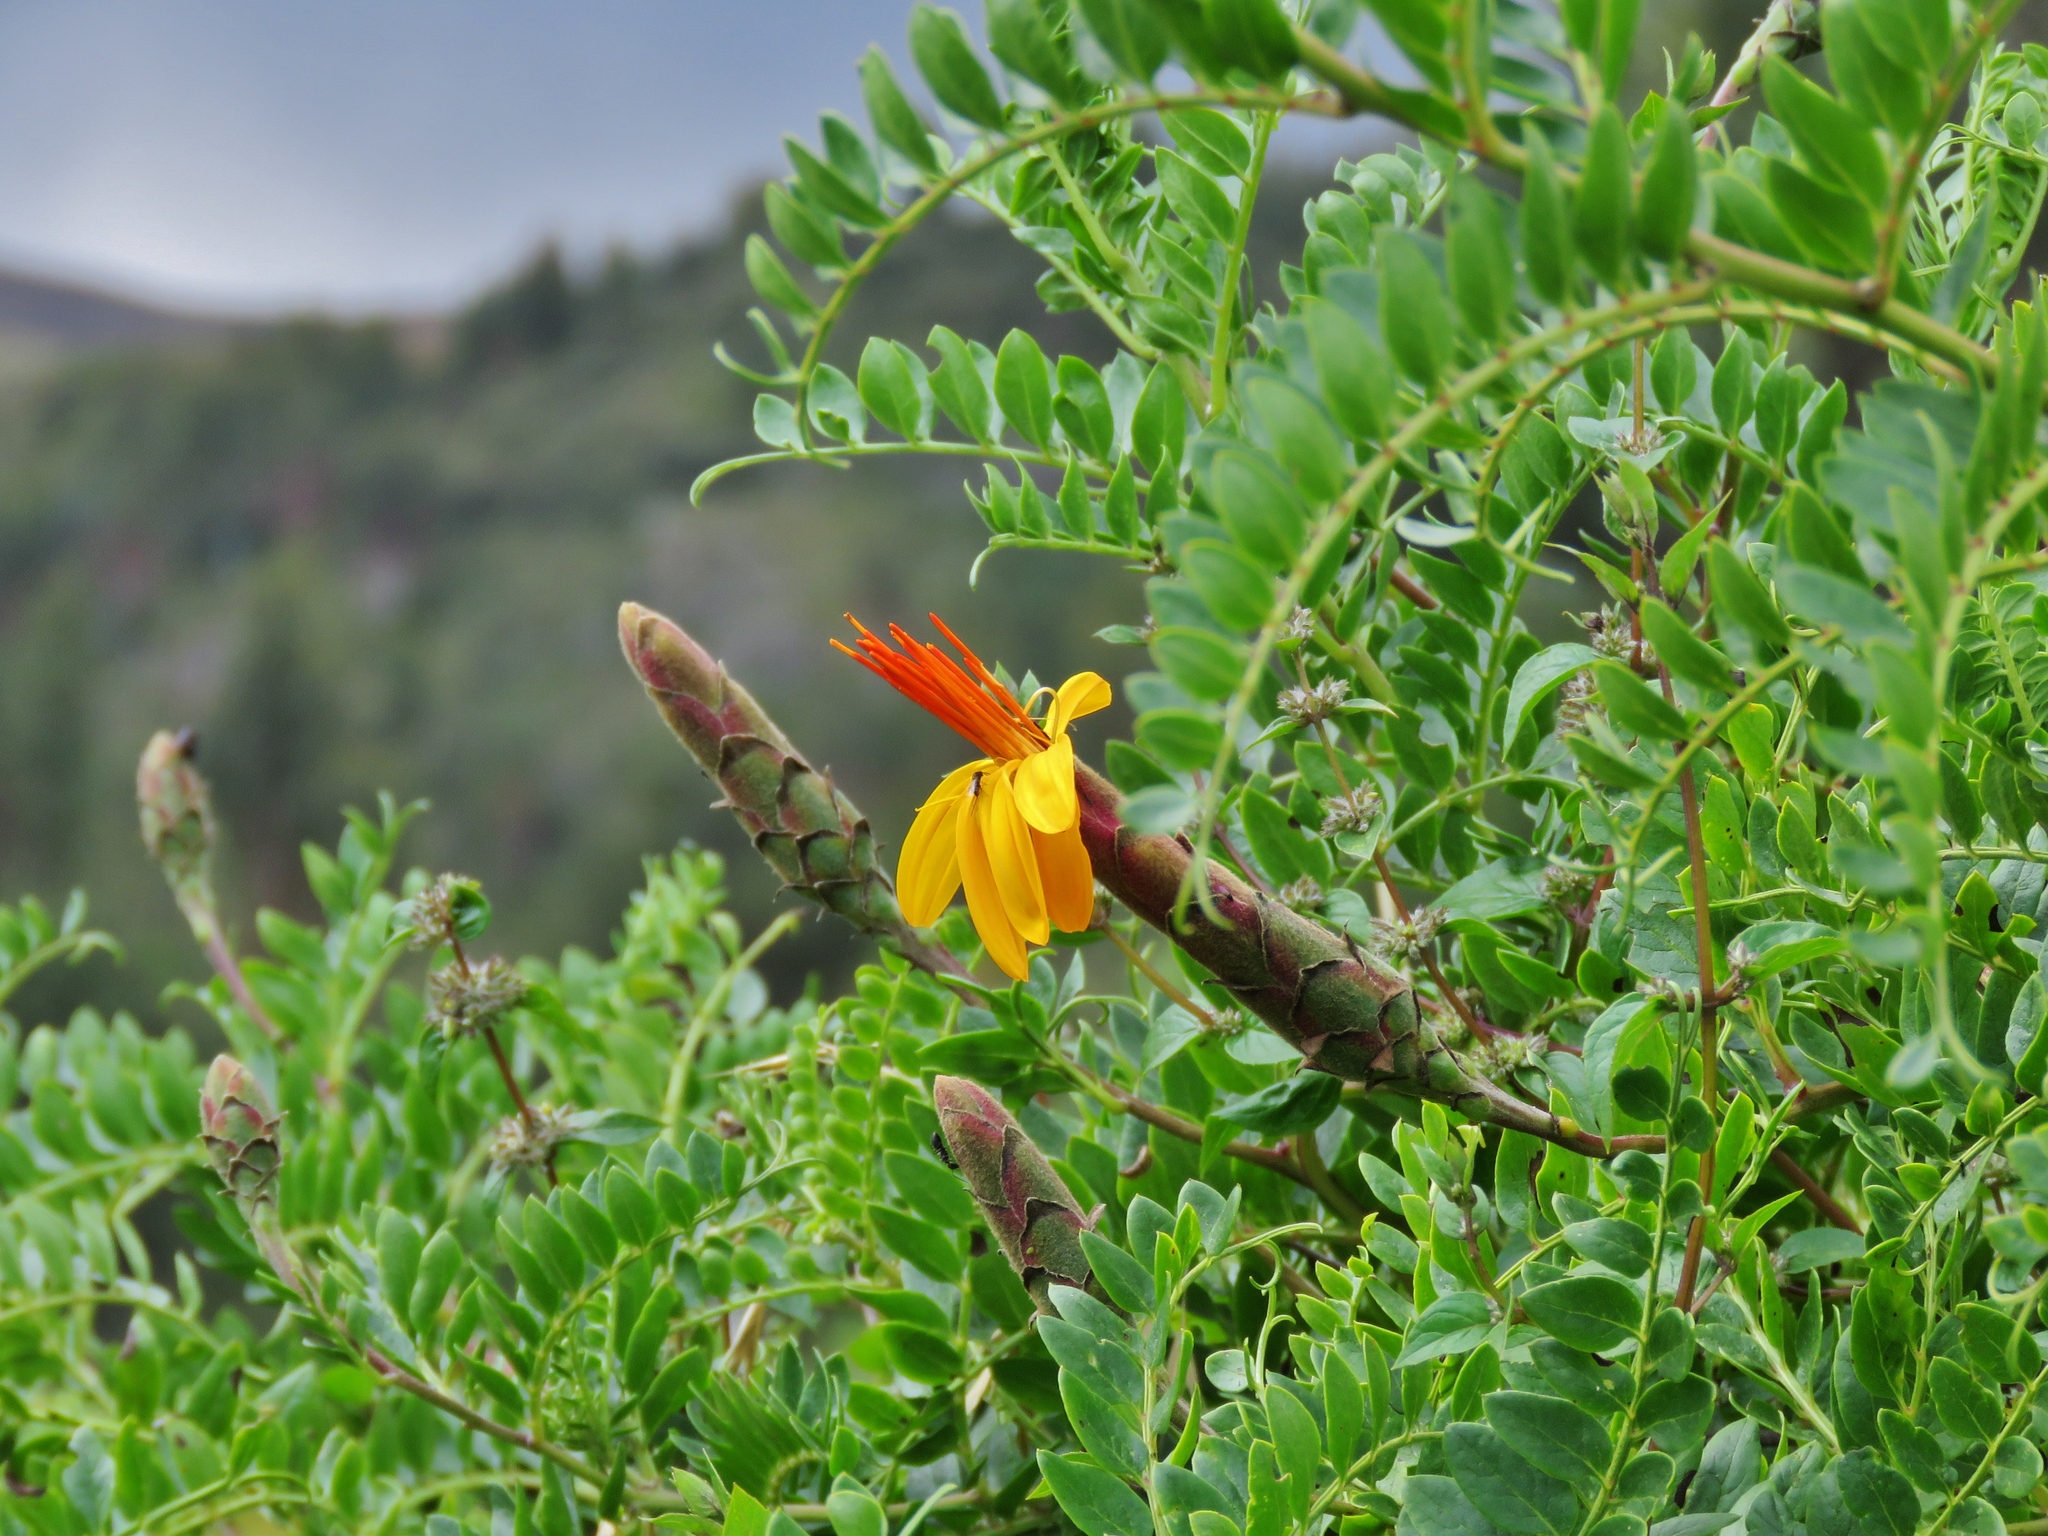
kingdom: Plantae
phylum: Tracheophyta
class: Magnoliopsida
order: Asterales
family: Asteraceae
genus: Mutisia
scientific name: Mutisia acuminata
